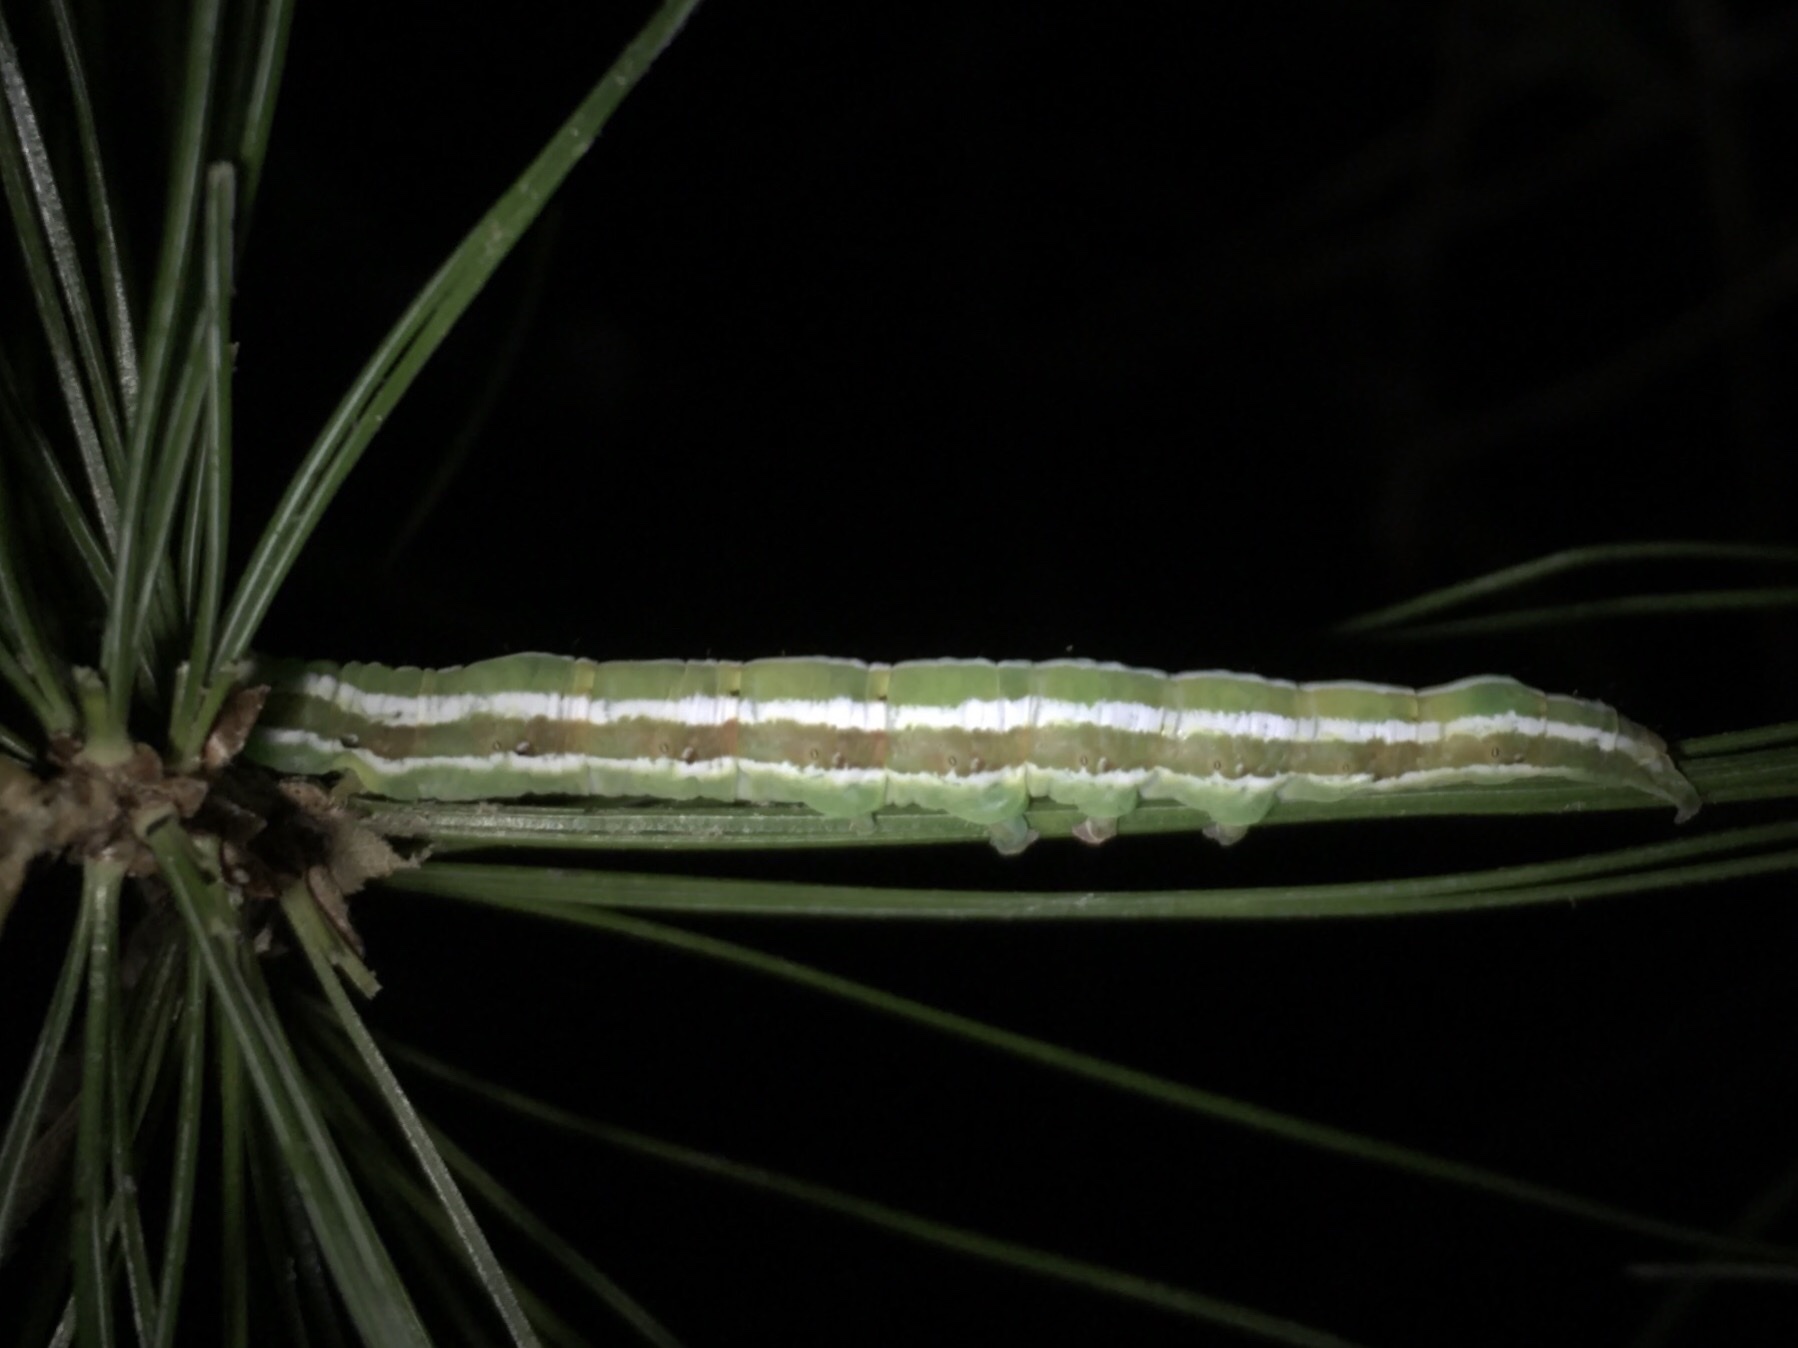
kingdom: Animalia
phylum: Arthropoda
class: Insecta
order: Lepidoptera
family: Erebidae
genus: Zale
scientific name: Zale helata
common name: Brown-spotted zale moth
